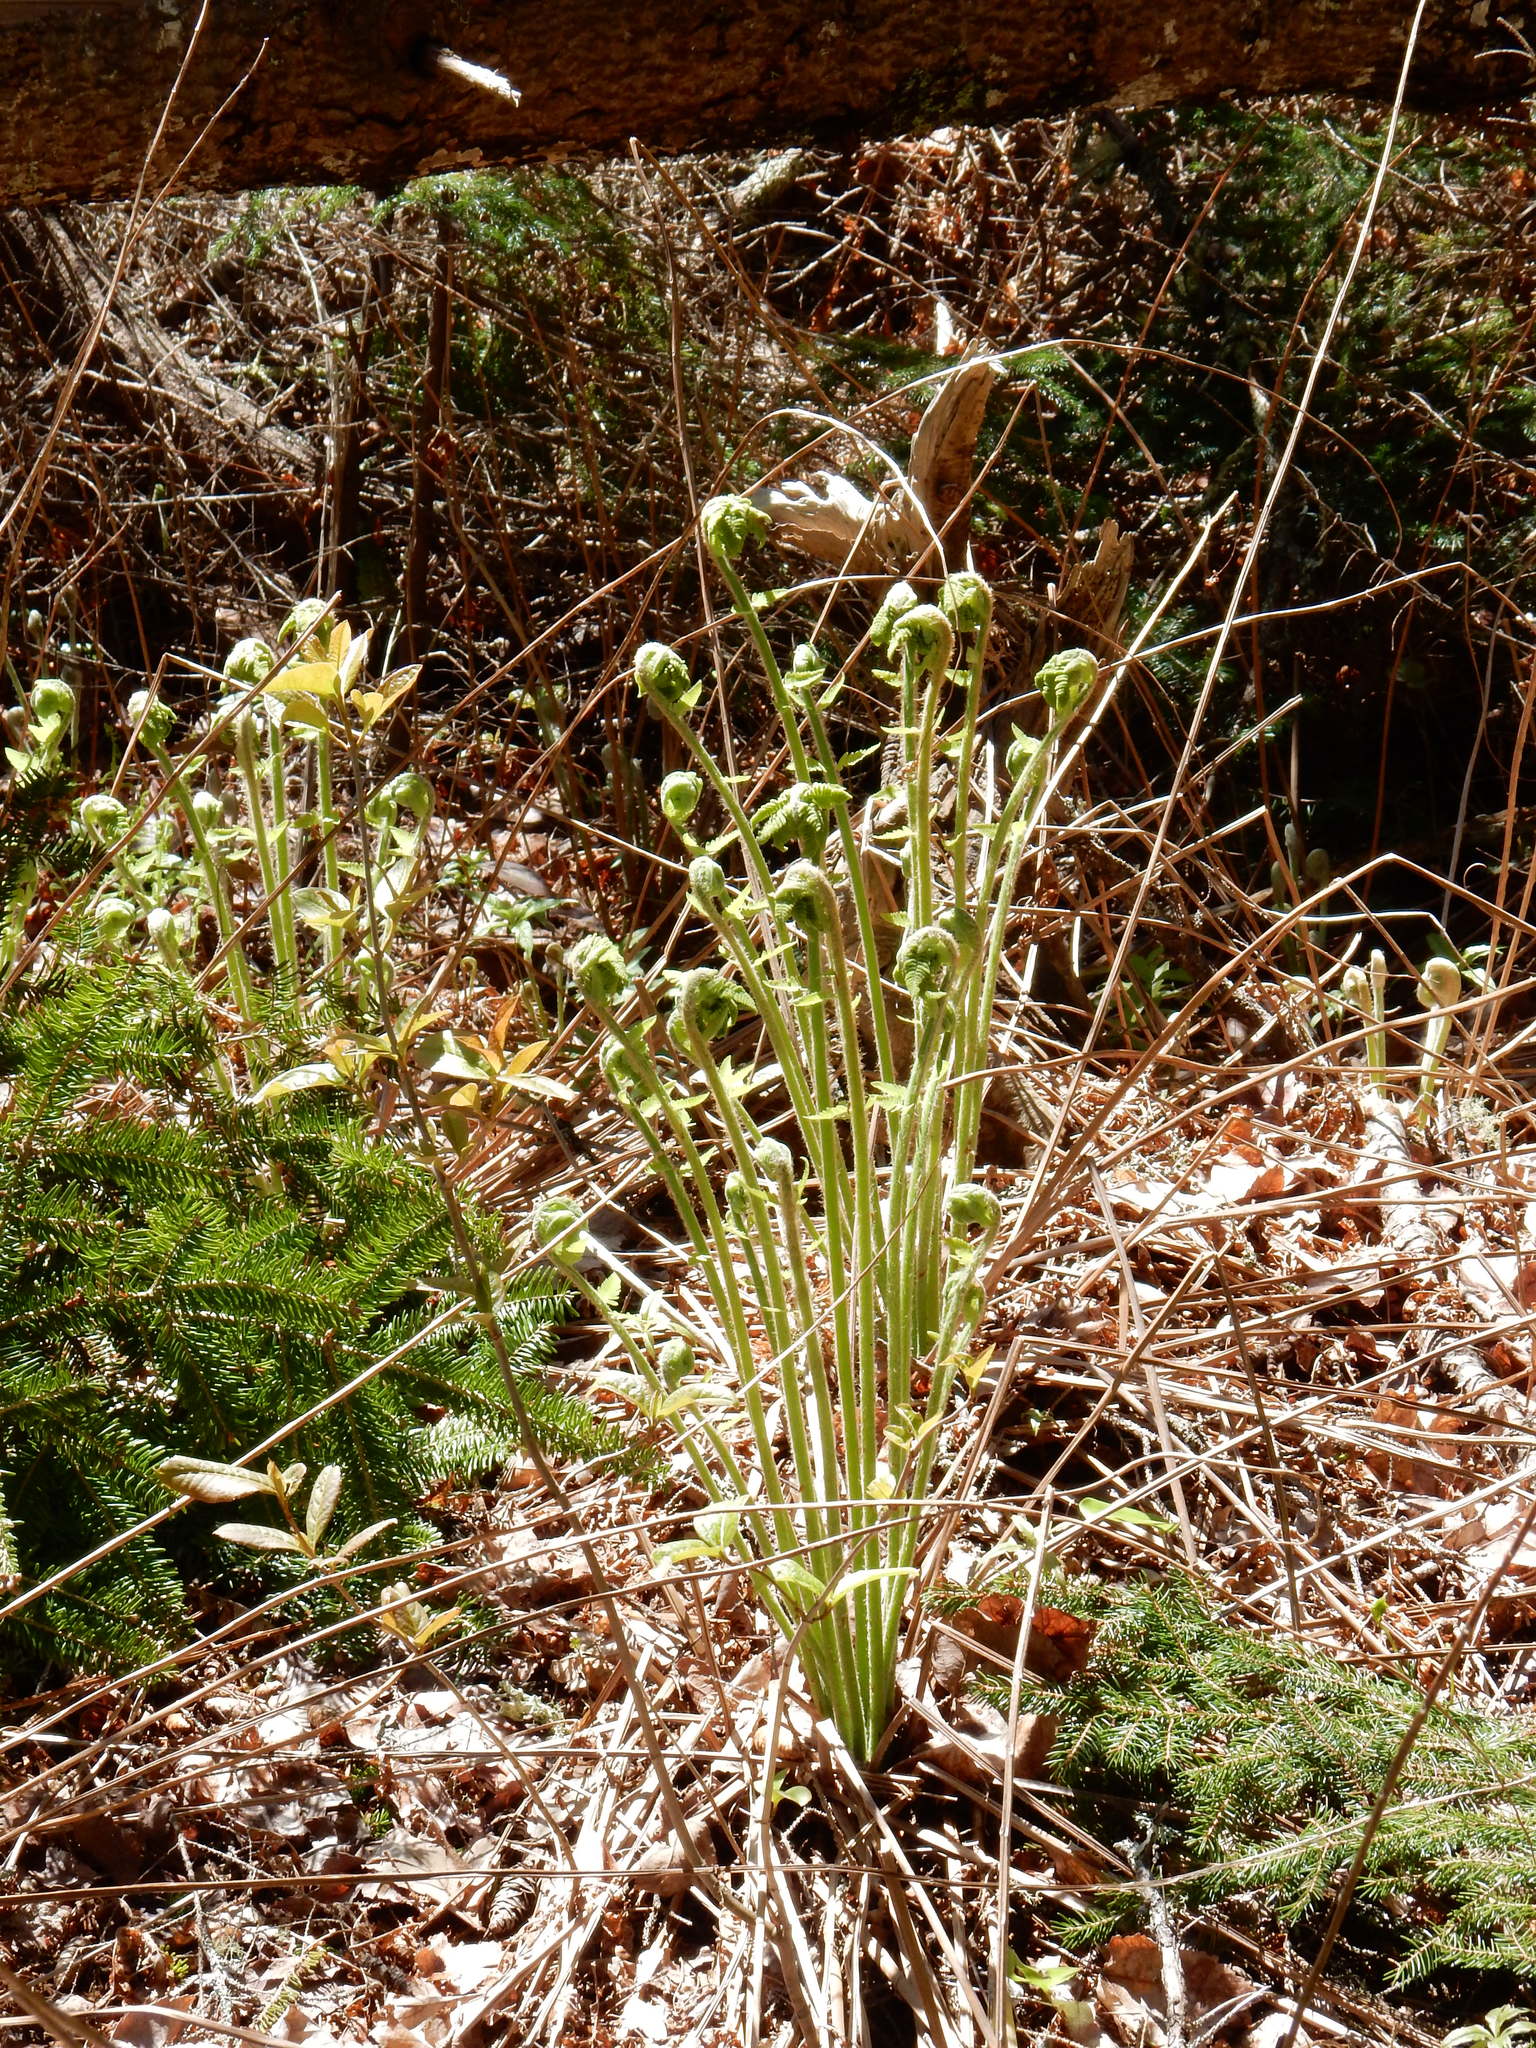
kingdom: Plantae
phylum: Tracheophyta
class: Polypodiopsida
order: Osmundales
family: Osmundaceae
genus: Osmundastrum
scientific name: Osmundastrum cinnamomeum
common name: Cinnamon fern
